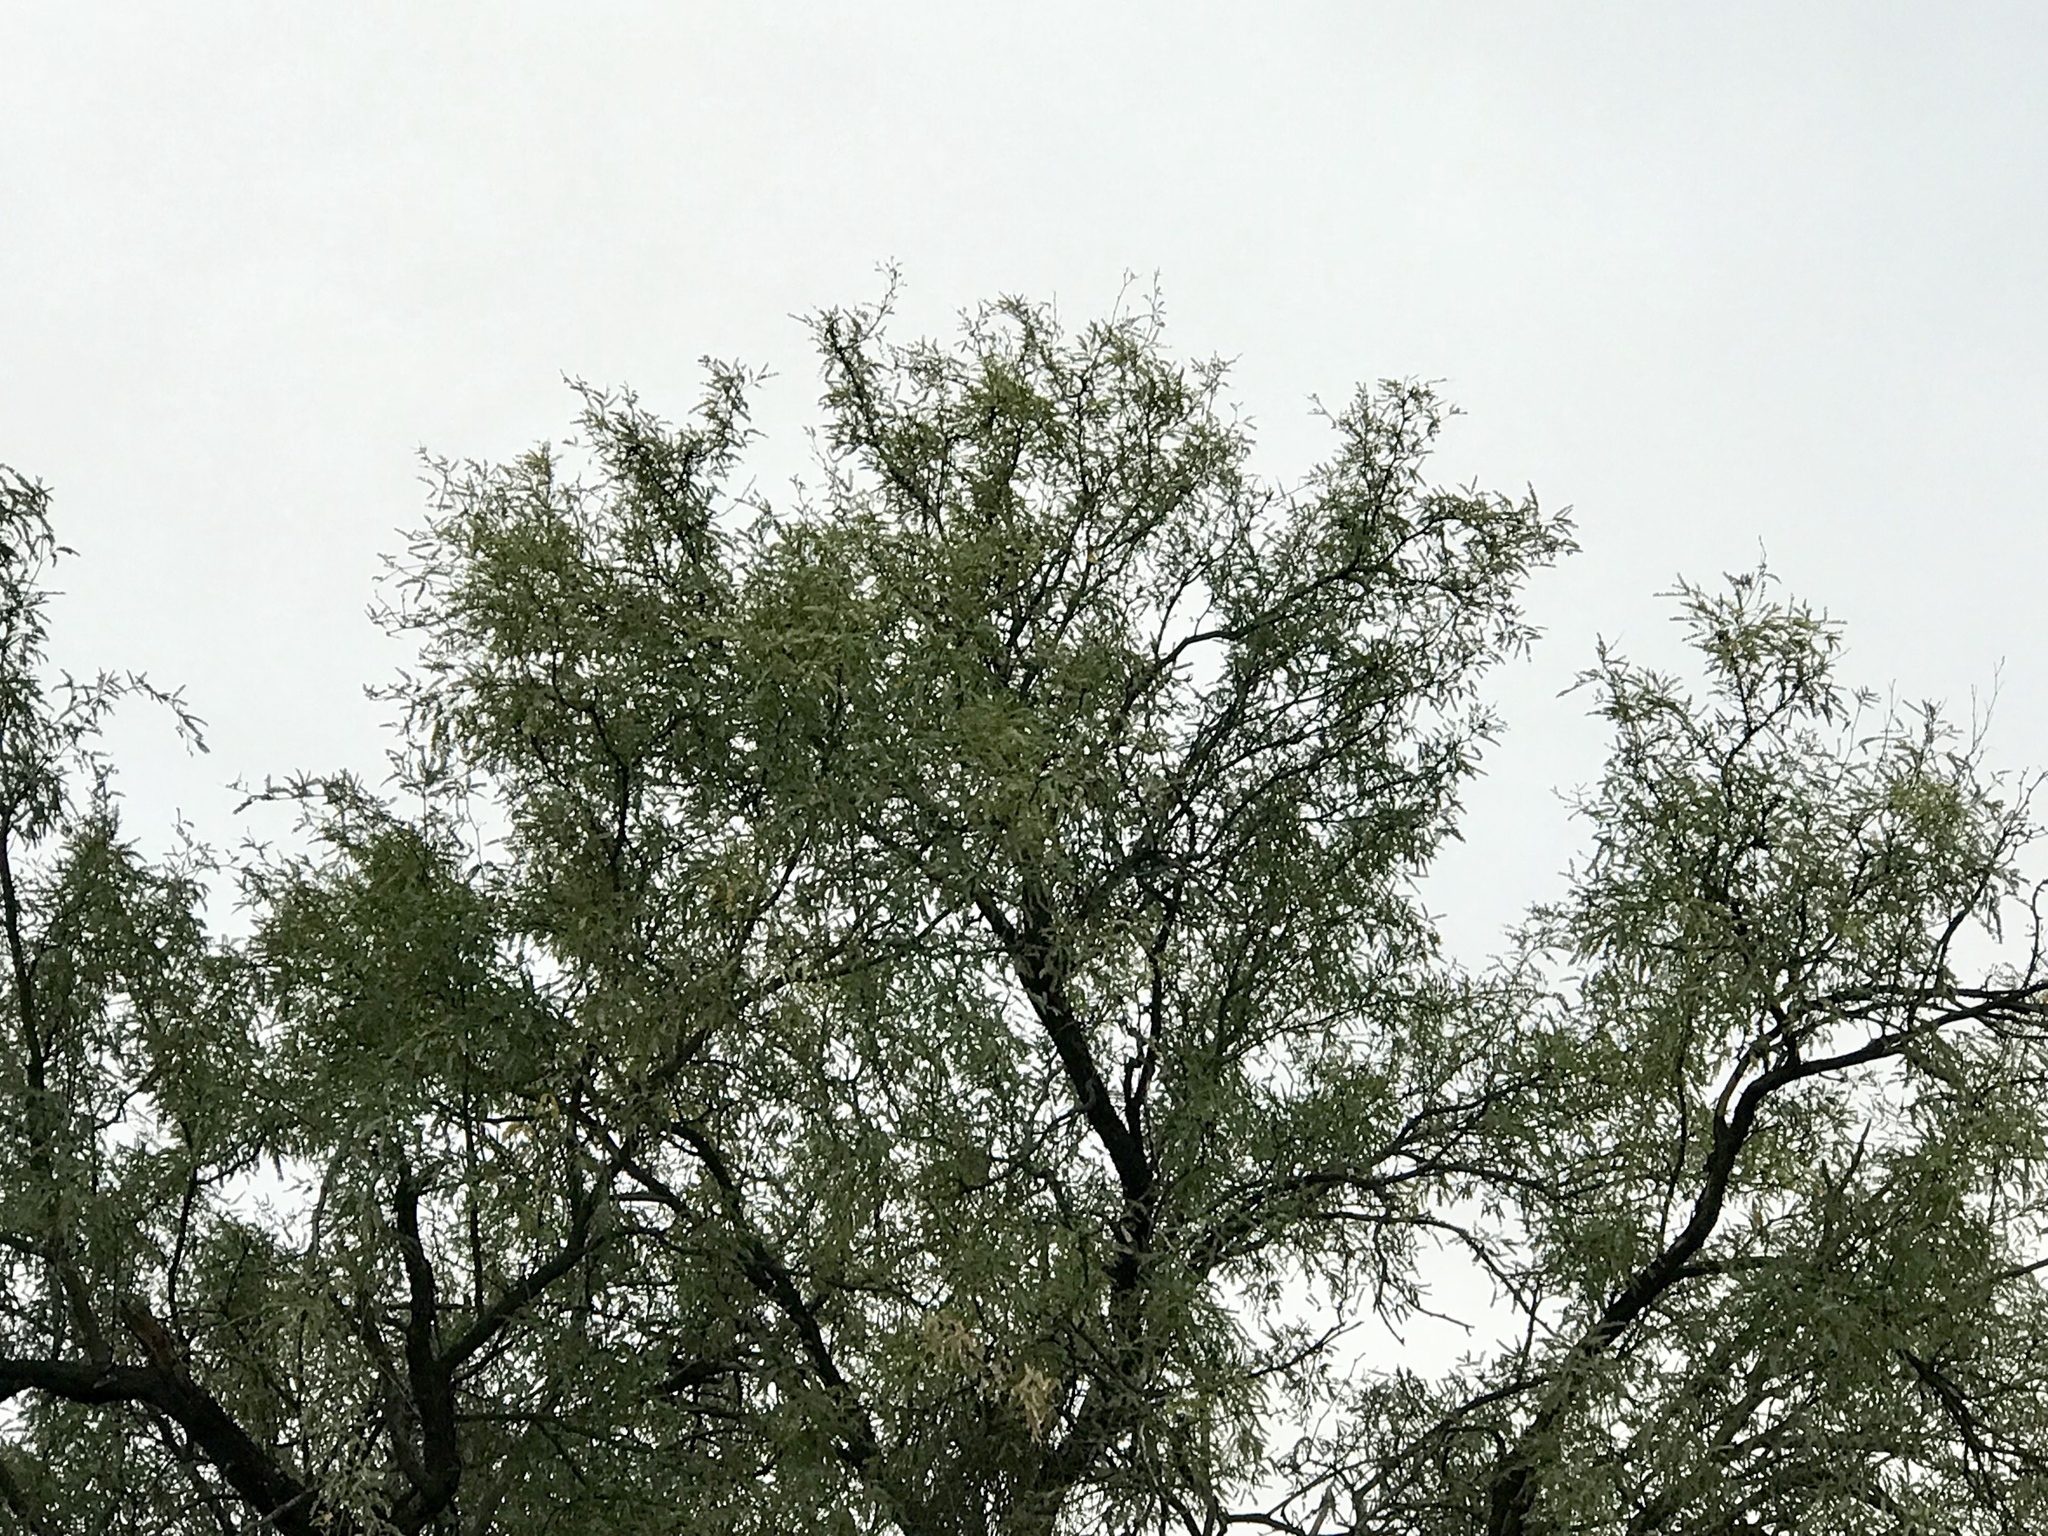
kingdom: Plantae
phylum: Tracheophyta
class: Magnoliopsida
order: Fabales
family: Fabaceae
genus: Prosopis
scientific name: Prosopis velutina
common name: Velvet mesquite
